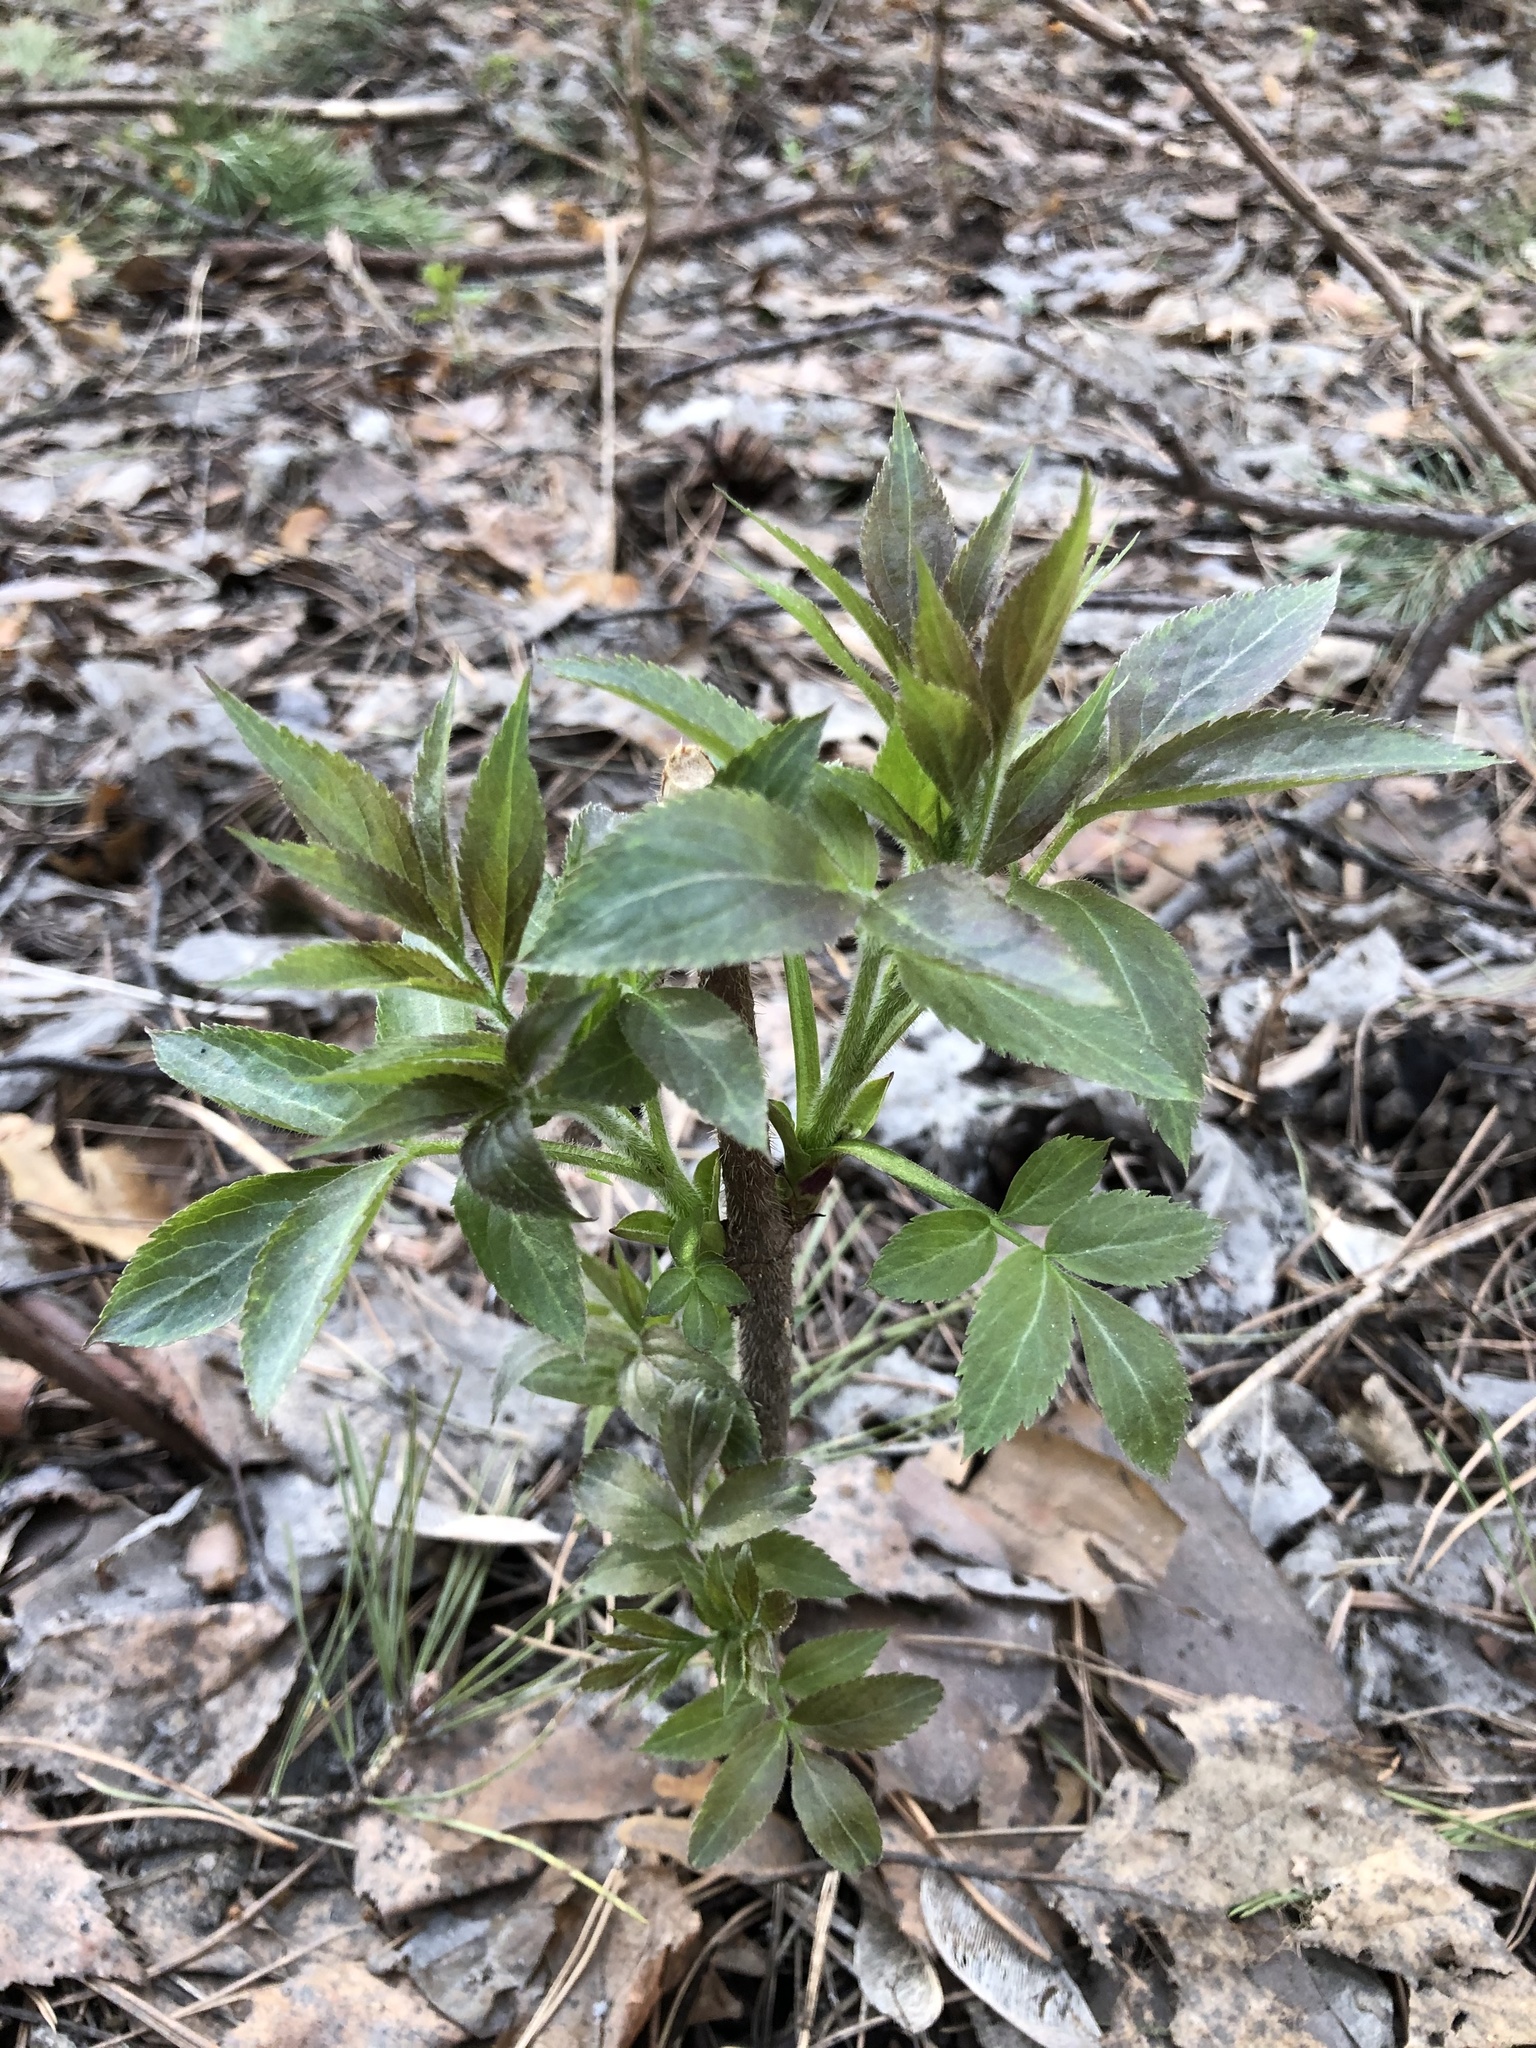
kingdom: Plantae
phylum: Tracheophyta
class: Magnoliopsida
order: Dipsacales
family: Viburnaceae
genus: Sambucus
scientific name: Sambucus sibirica
